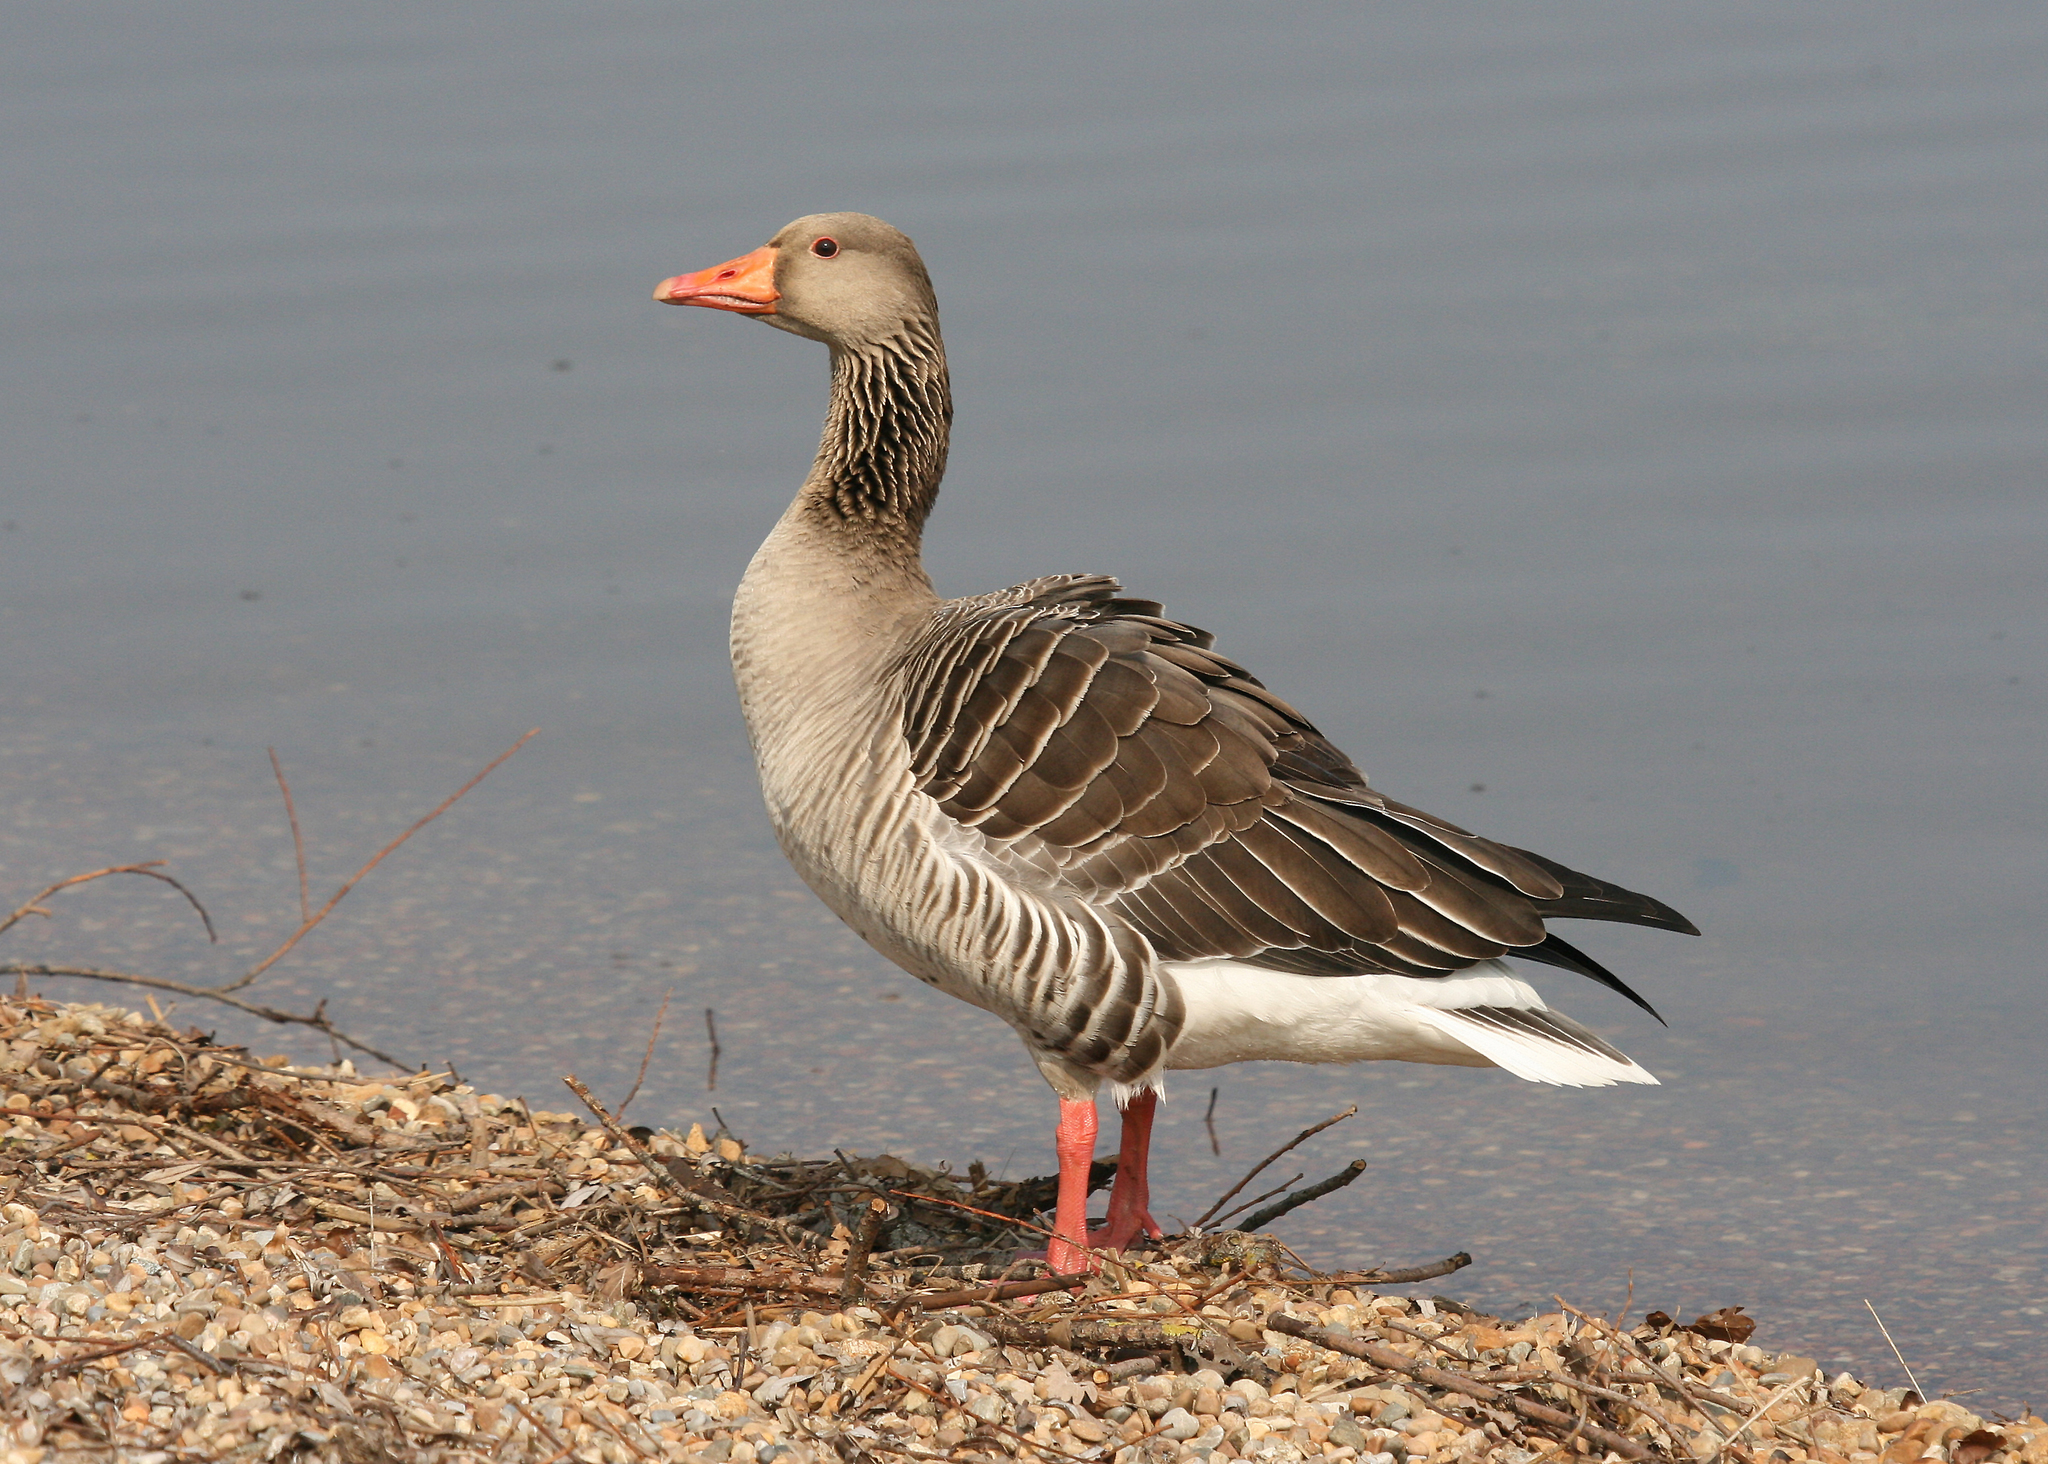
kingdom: Animalia
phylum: Chordata
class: Aves
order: Anseriformes
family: Anatidae
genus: Anser
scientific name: Anser anser
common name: Greylag goose
